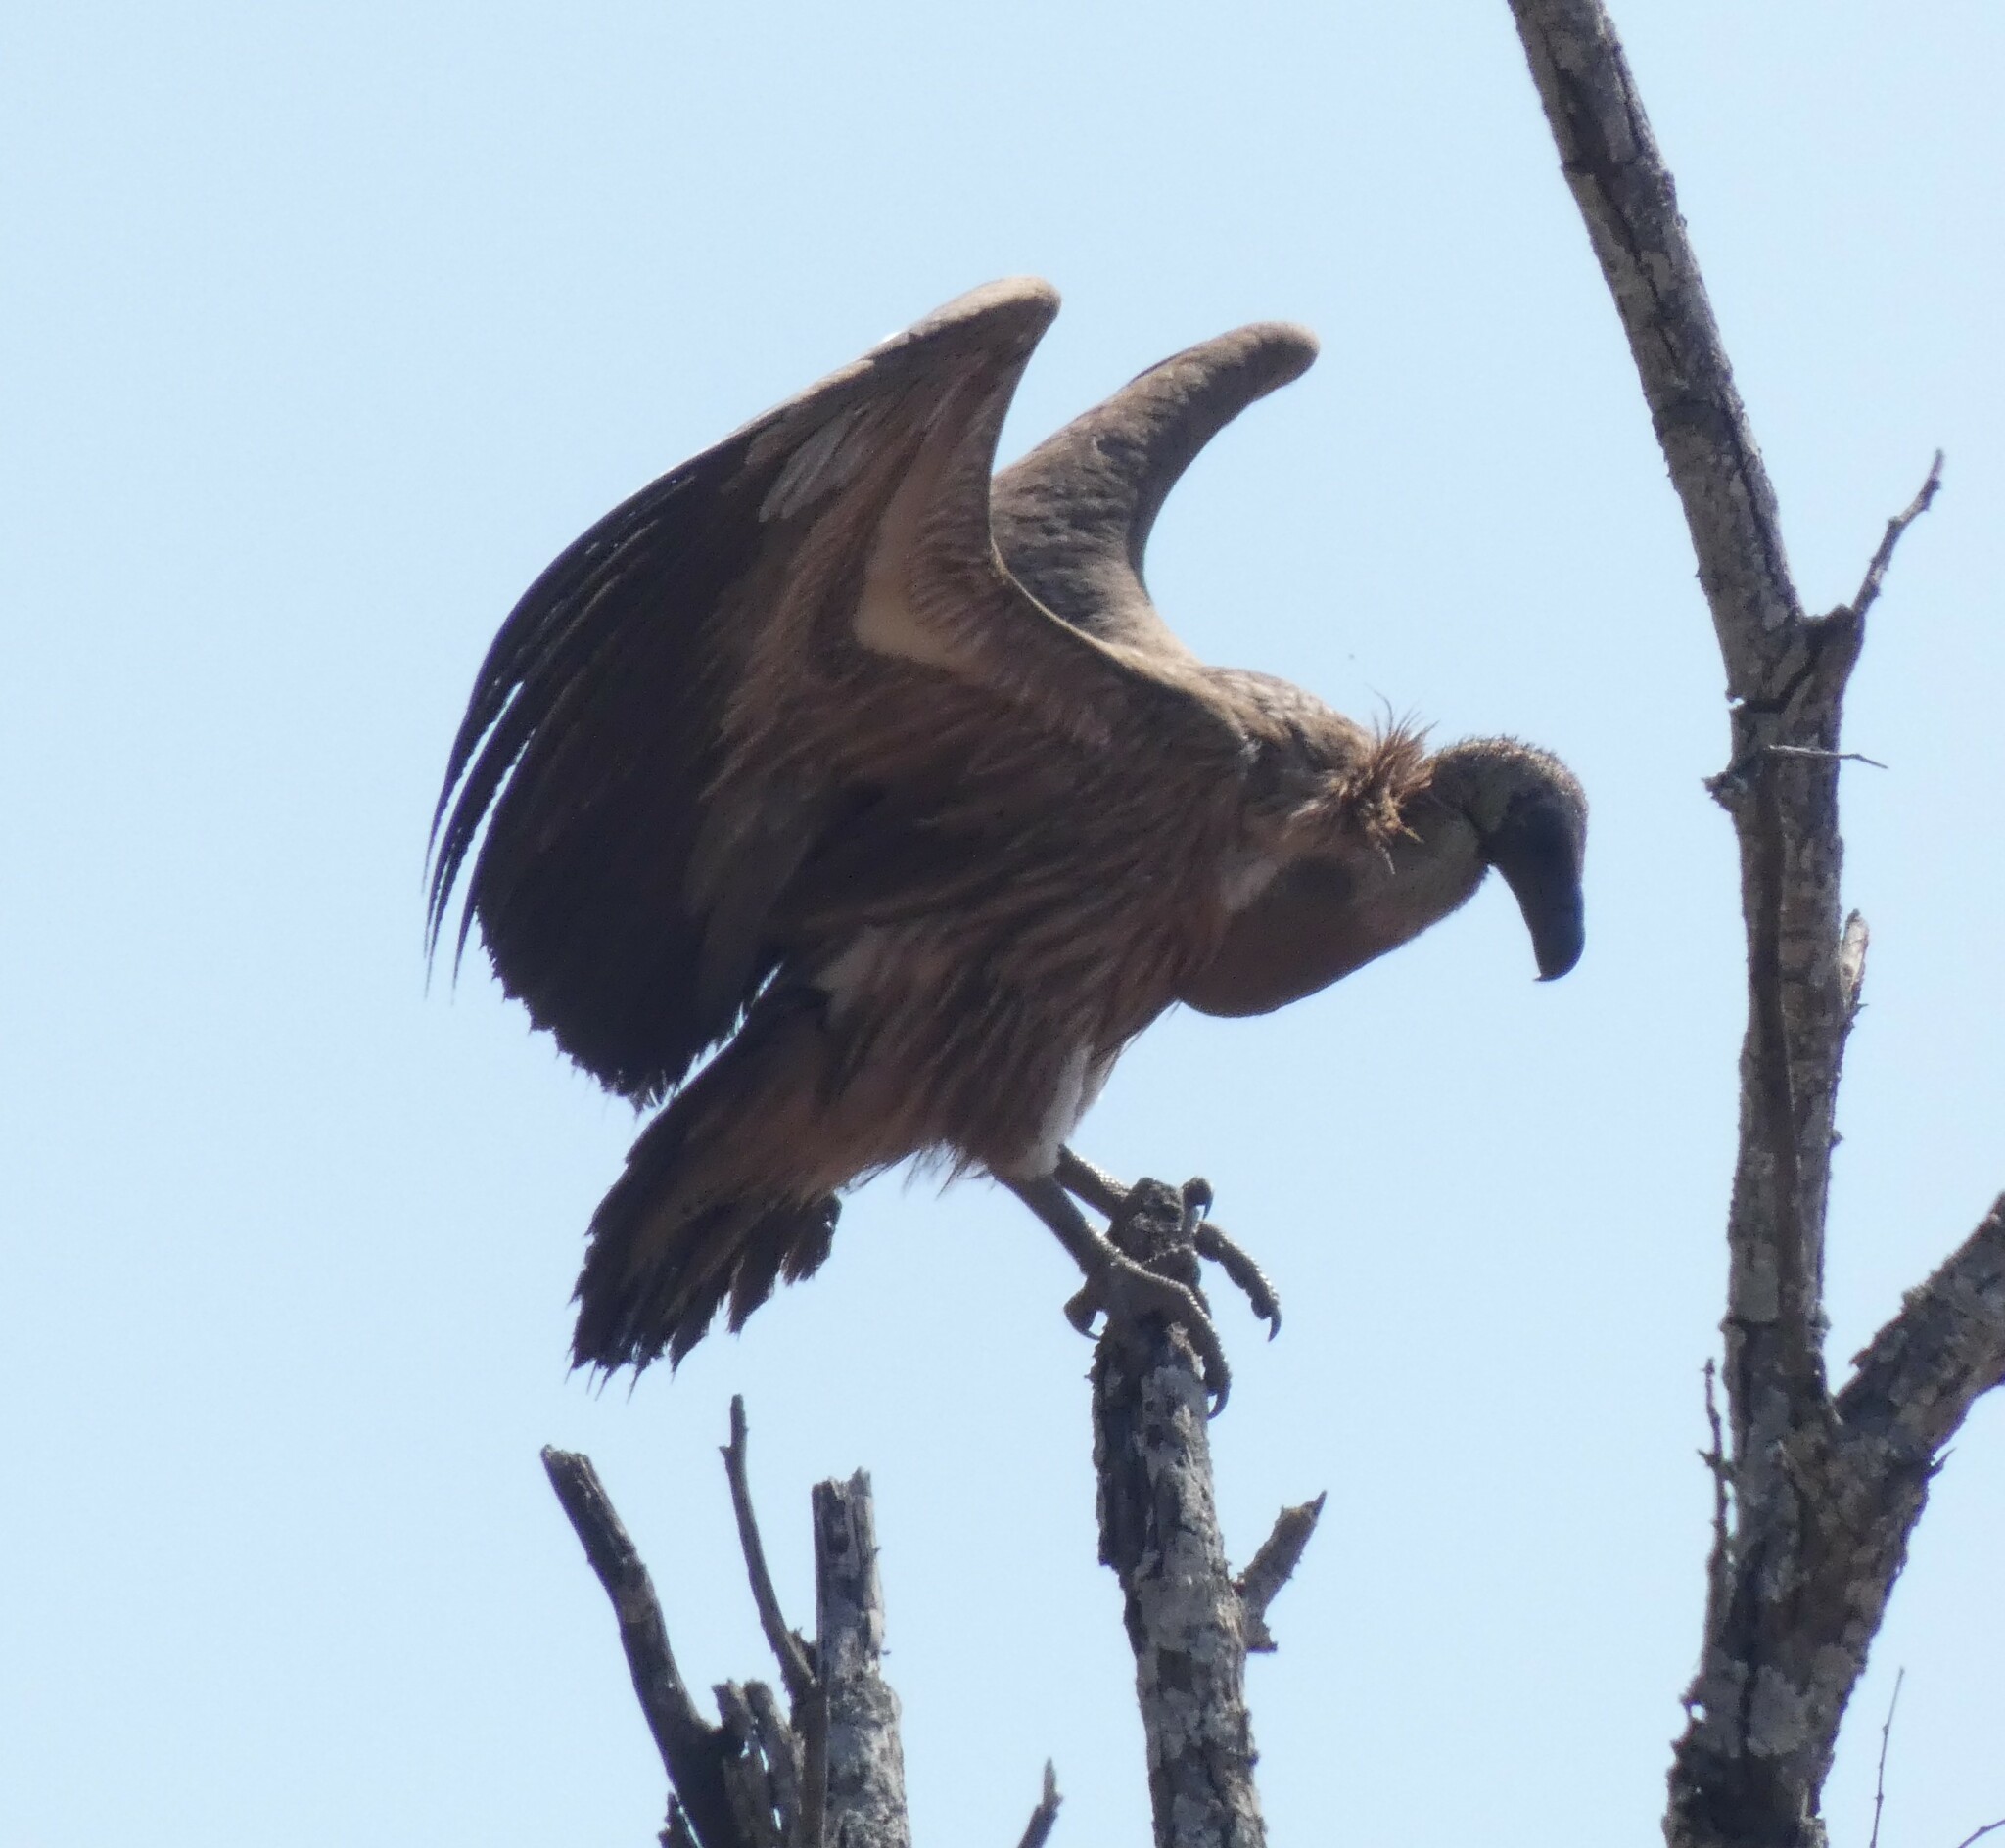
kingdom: Animalia
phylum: Chordata
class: Aves
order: Accipitriformes
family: Accipitridae
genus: Gyps
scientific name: Gyps africanus
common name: White-backed vulture
